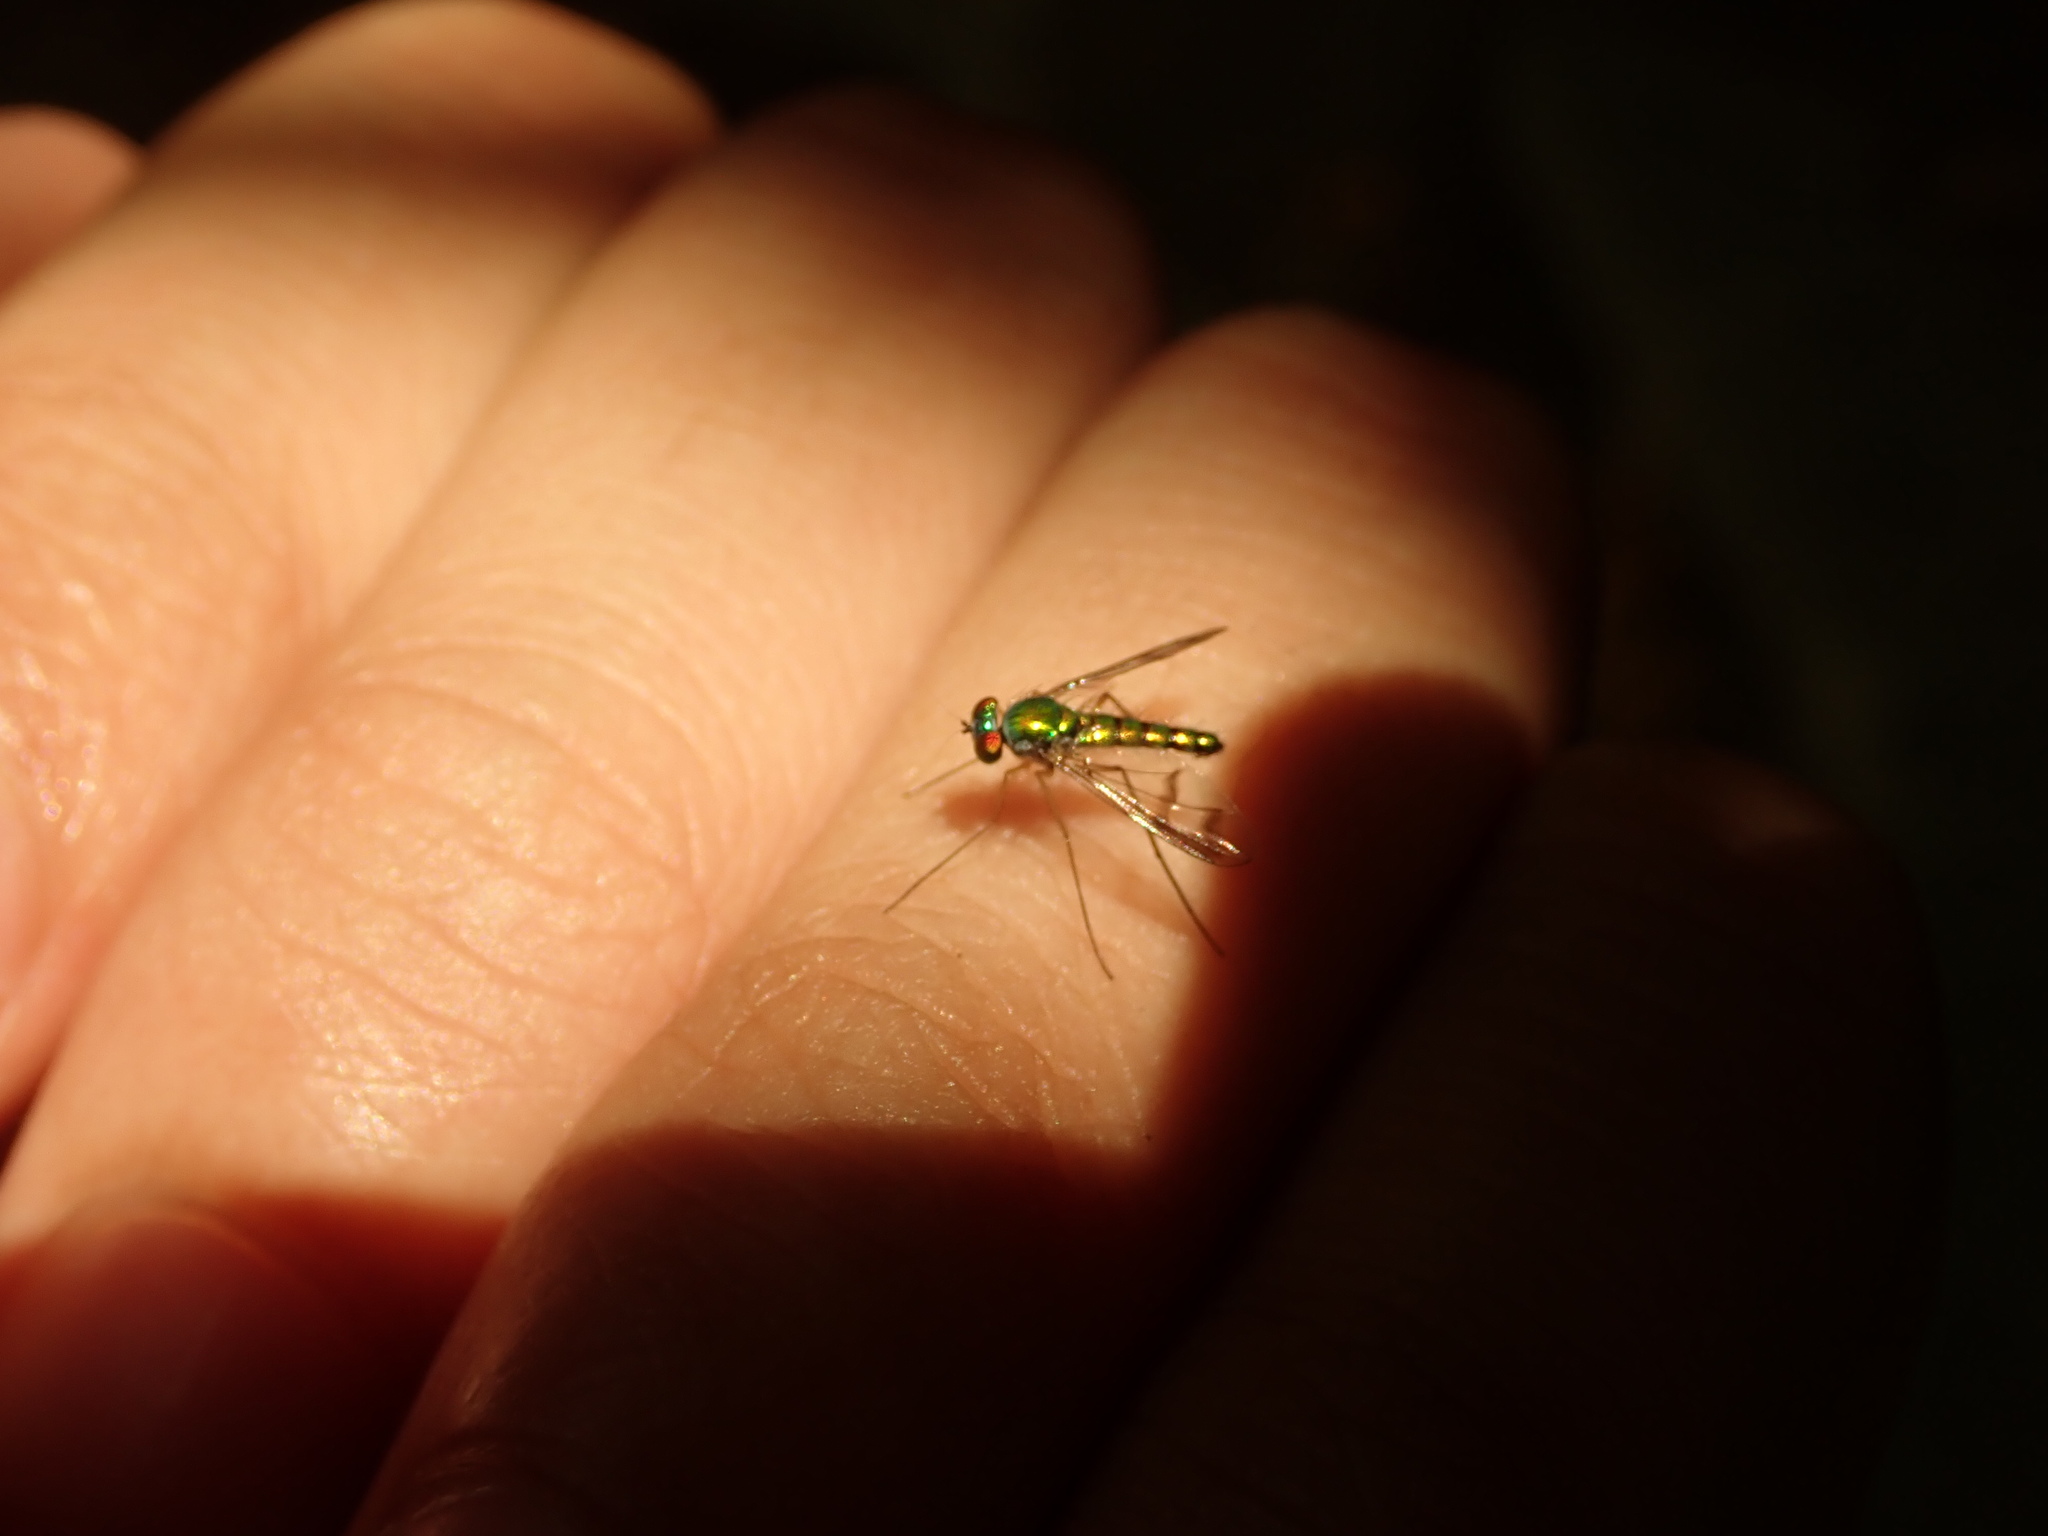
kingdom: Animalia
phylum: Arthropoda
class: Insecta
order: Diptera
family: Dolichopodidae
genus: Condylostylus
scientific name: Condylostylus
